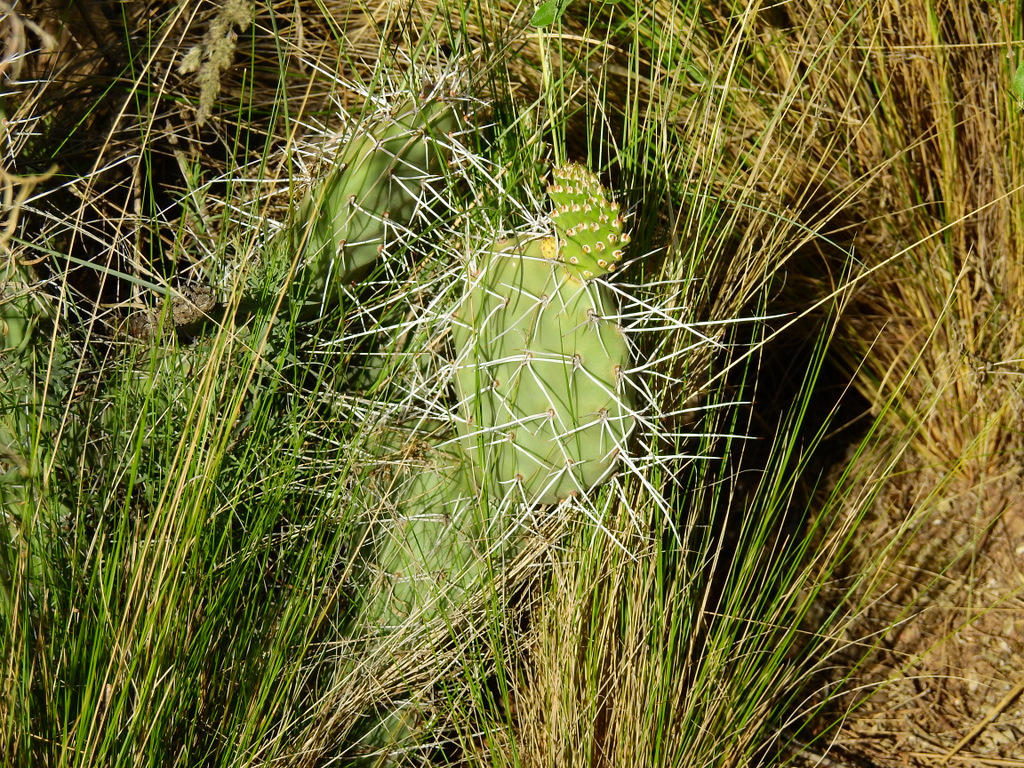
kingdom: Plantae
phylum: Tracheophyta
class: Magnoliopsida
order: Caryophyllales
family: Cactaceae
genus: Opuntia
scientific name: Opuntia sulphurea
